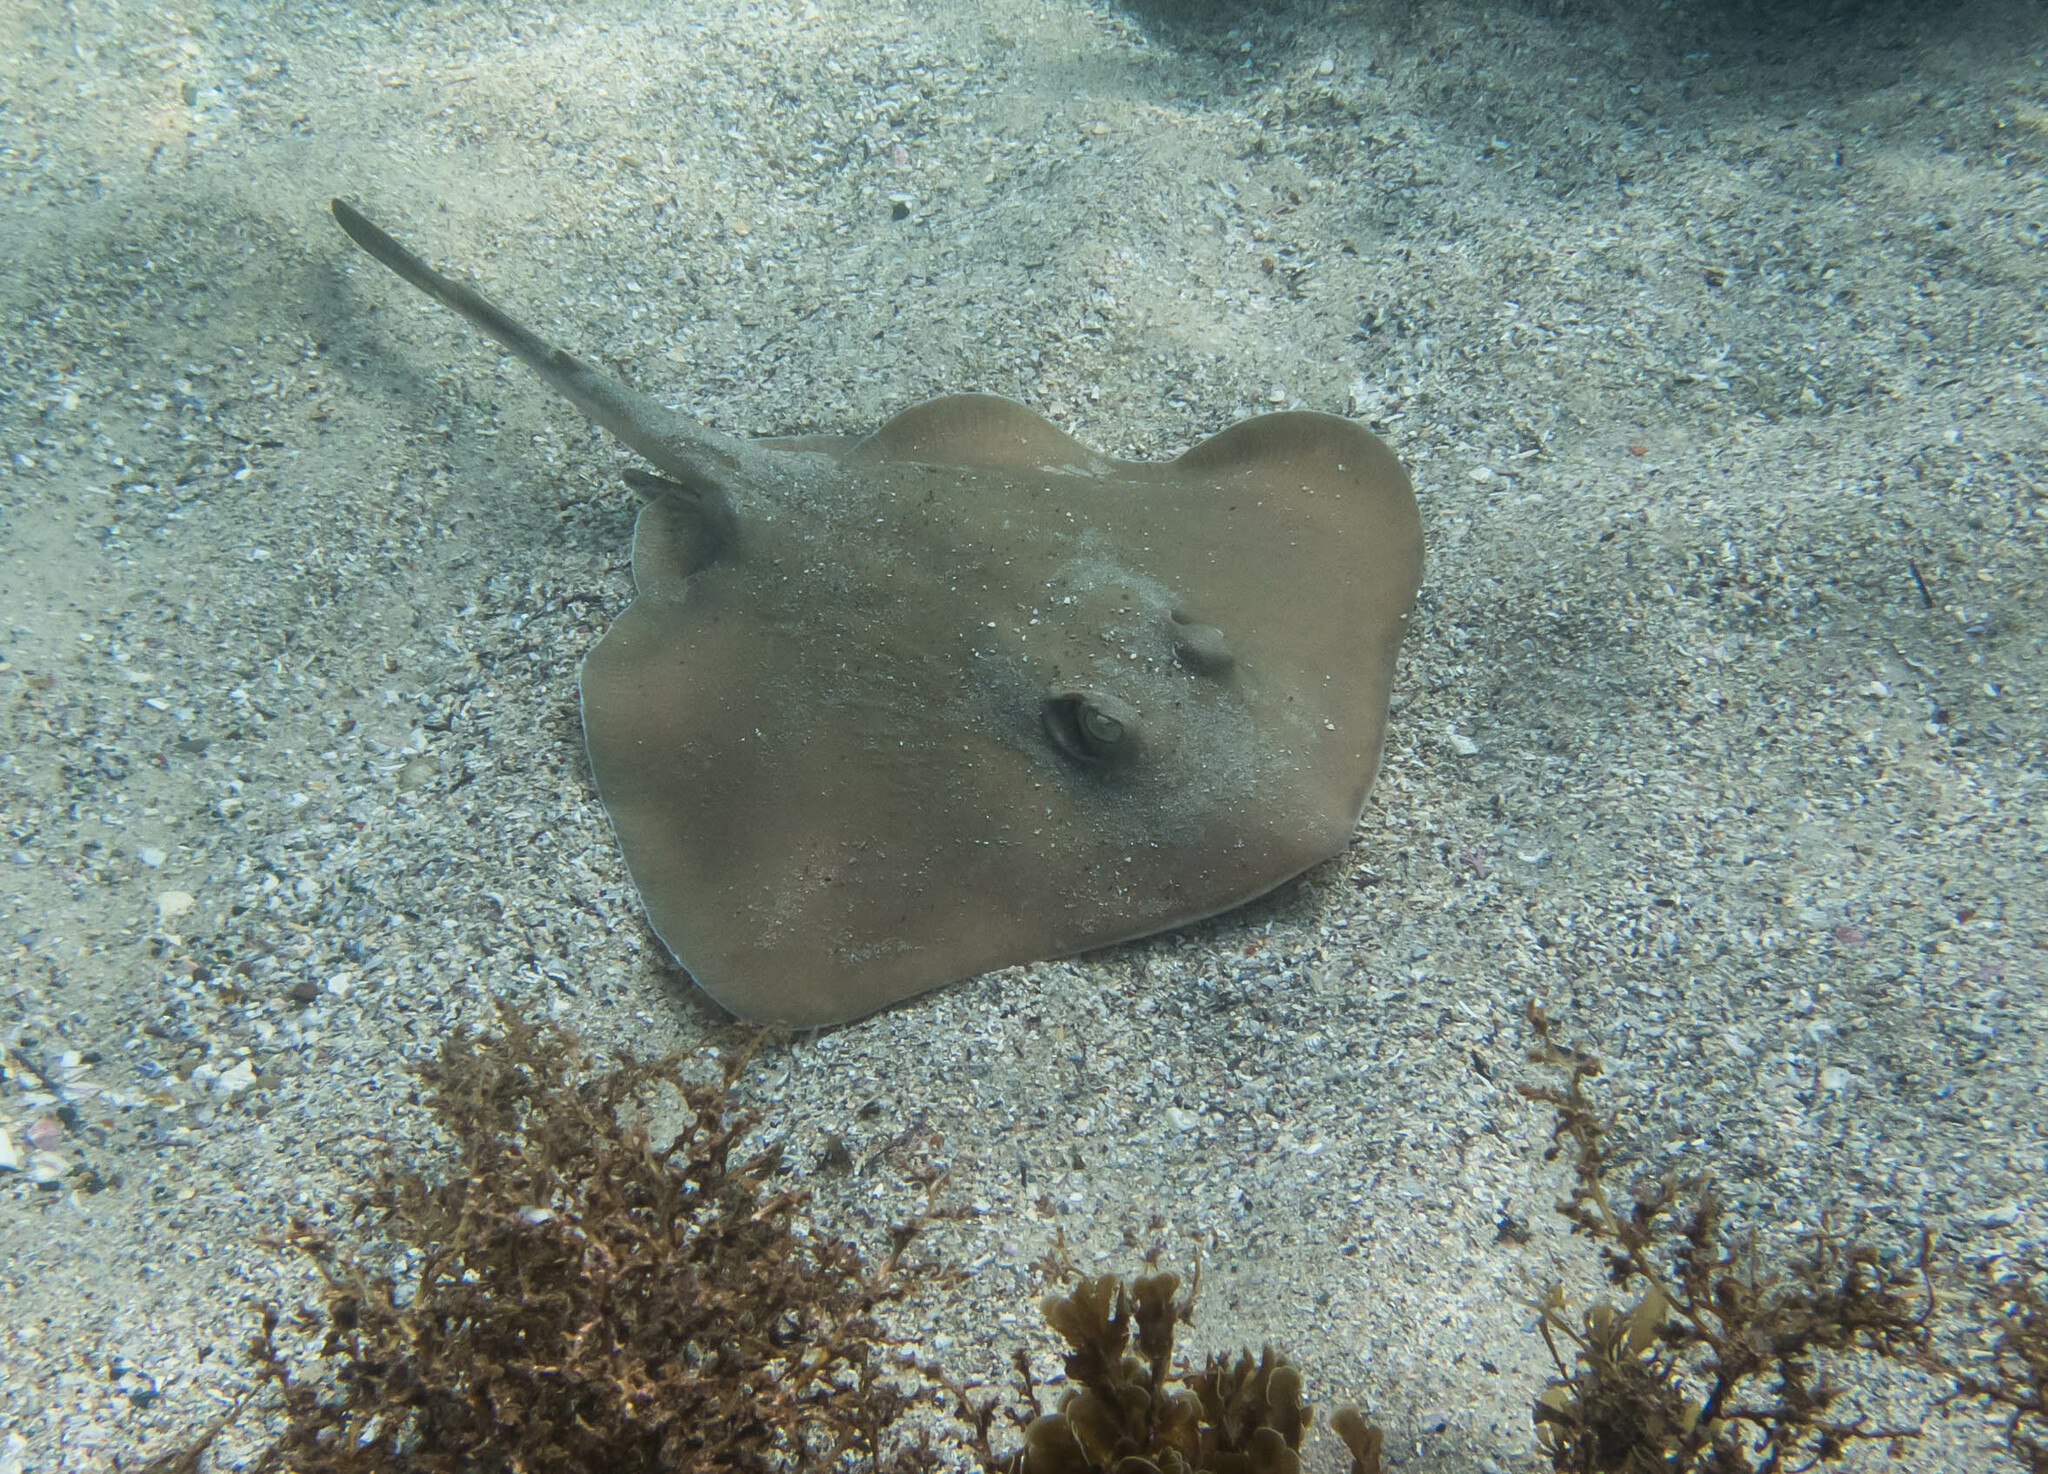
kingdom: Animalia
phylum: Chordata
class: Elasmobranchii
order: Myliobatiformes
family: Urolophidae
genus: Trygonoptera
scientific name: Trygonoptera testacea
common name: Common stingaree
